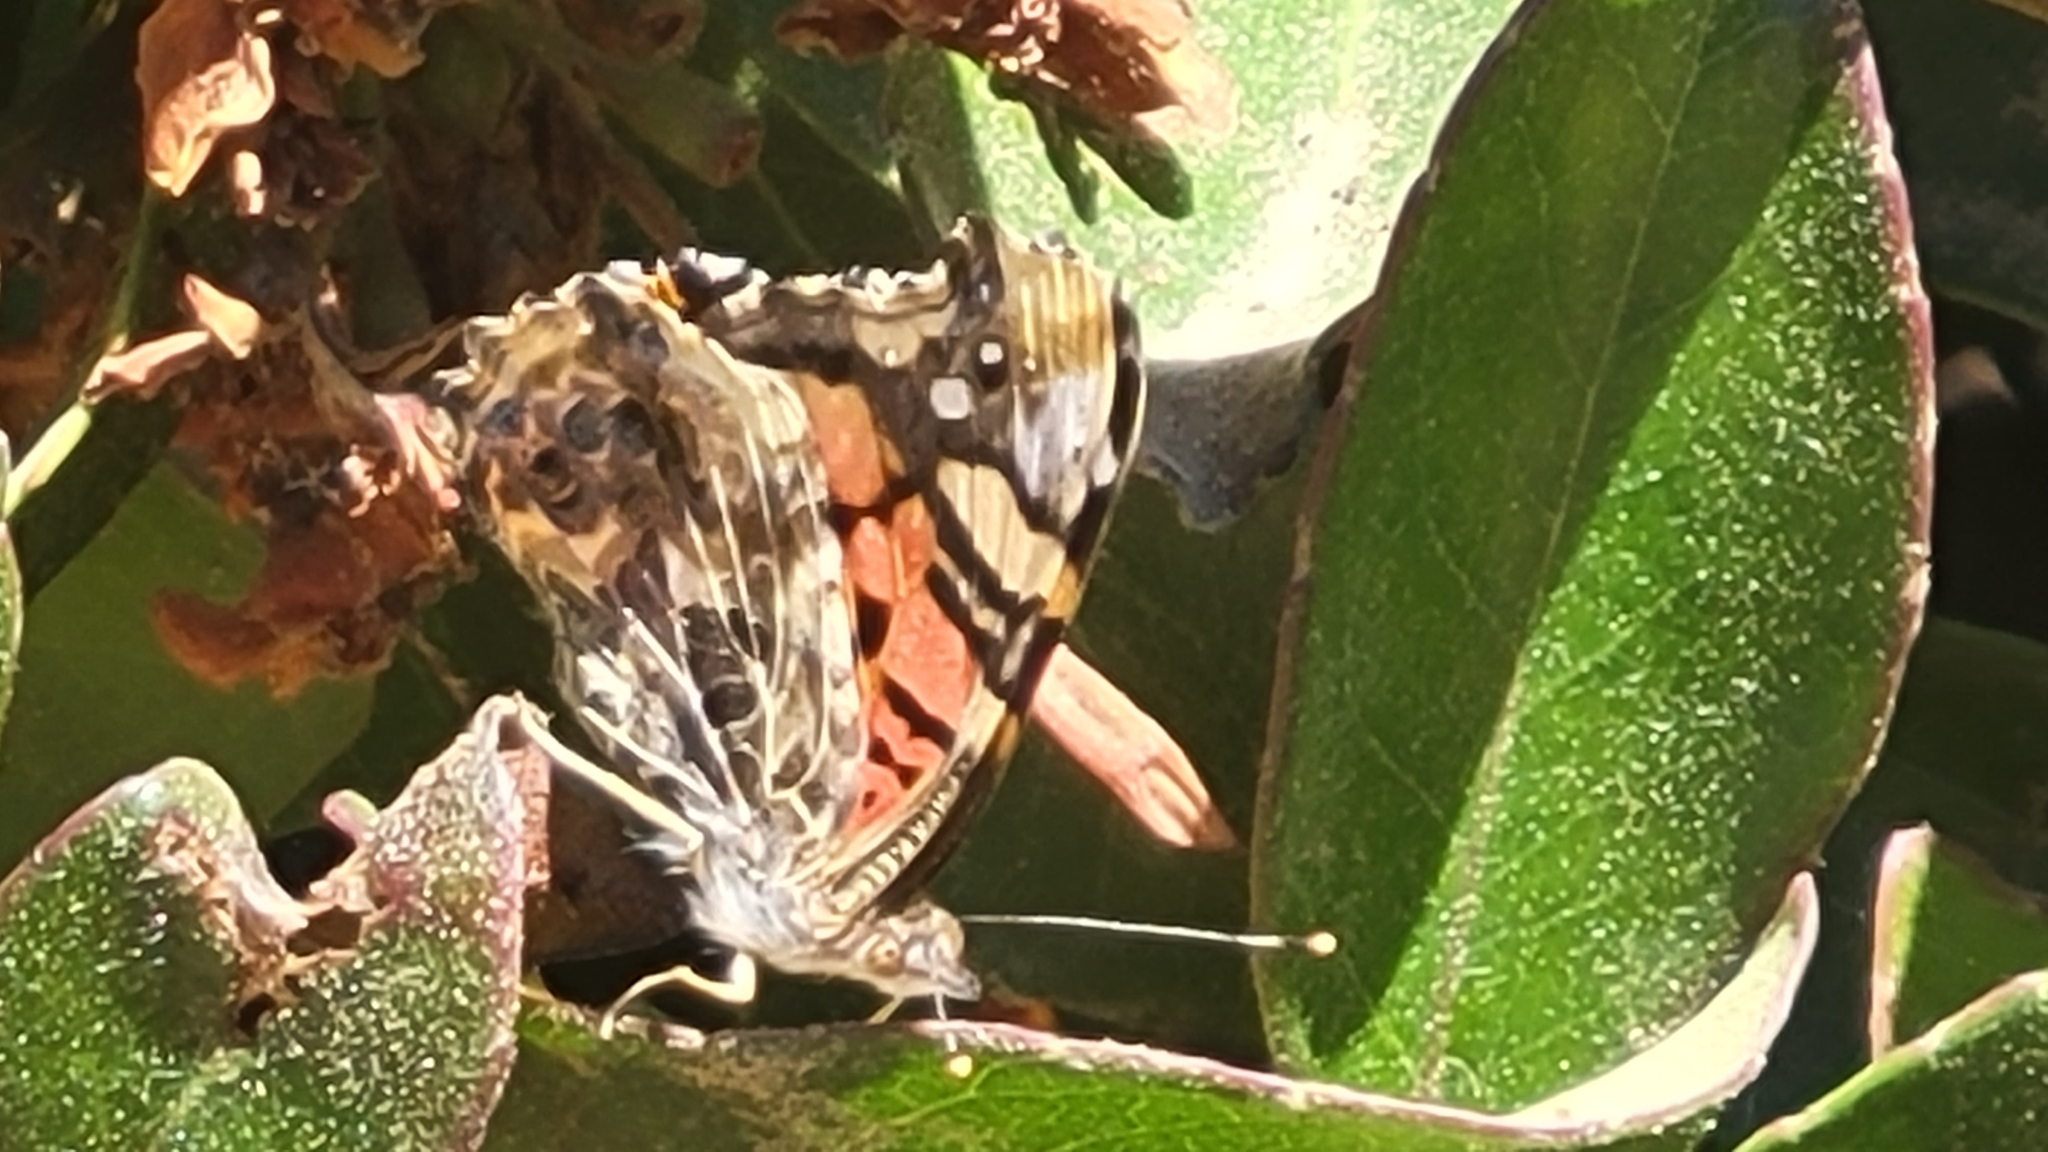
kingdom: Animalia
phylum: Arthropoda
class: Insecta
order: Lepidoptera
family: Nymphalidae
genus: Vanessa
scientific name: Vanessa annabella
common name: West coast lady
